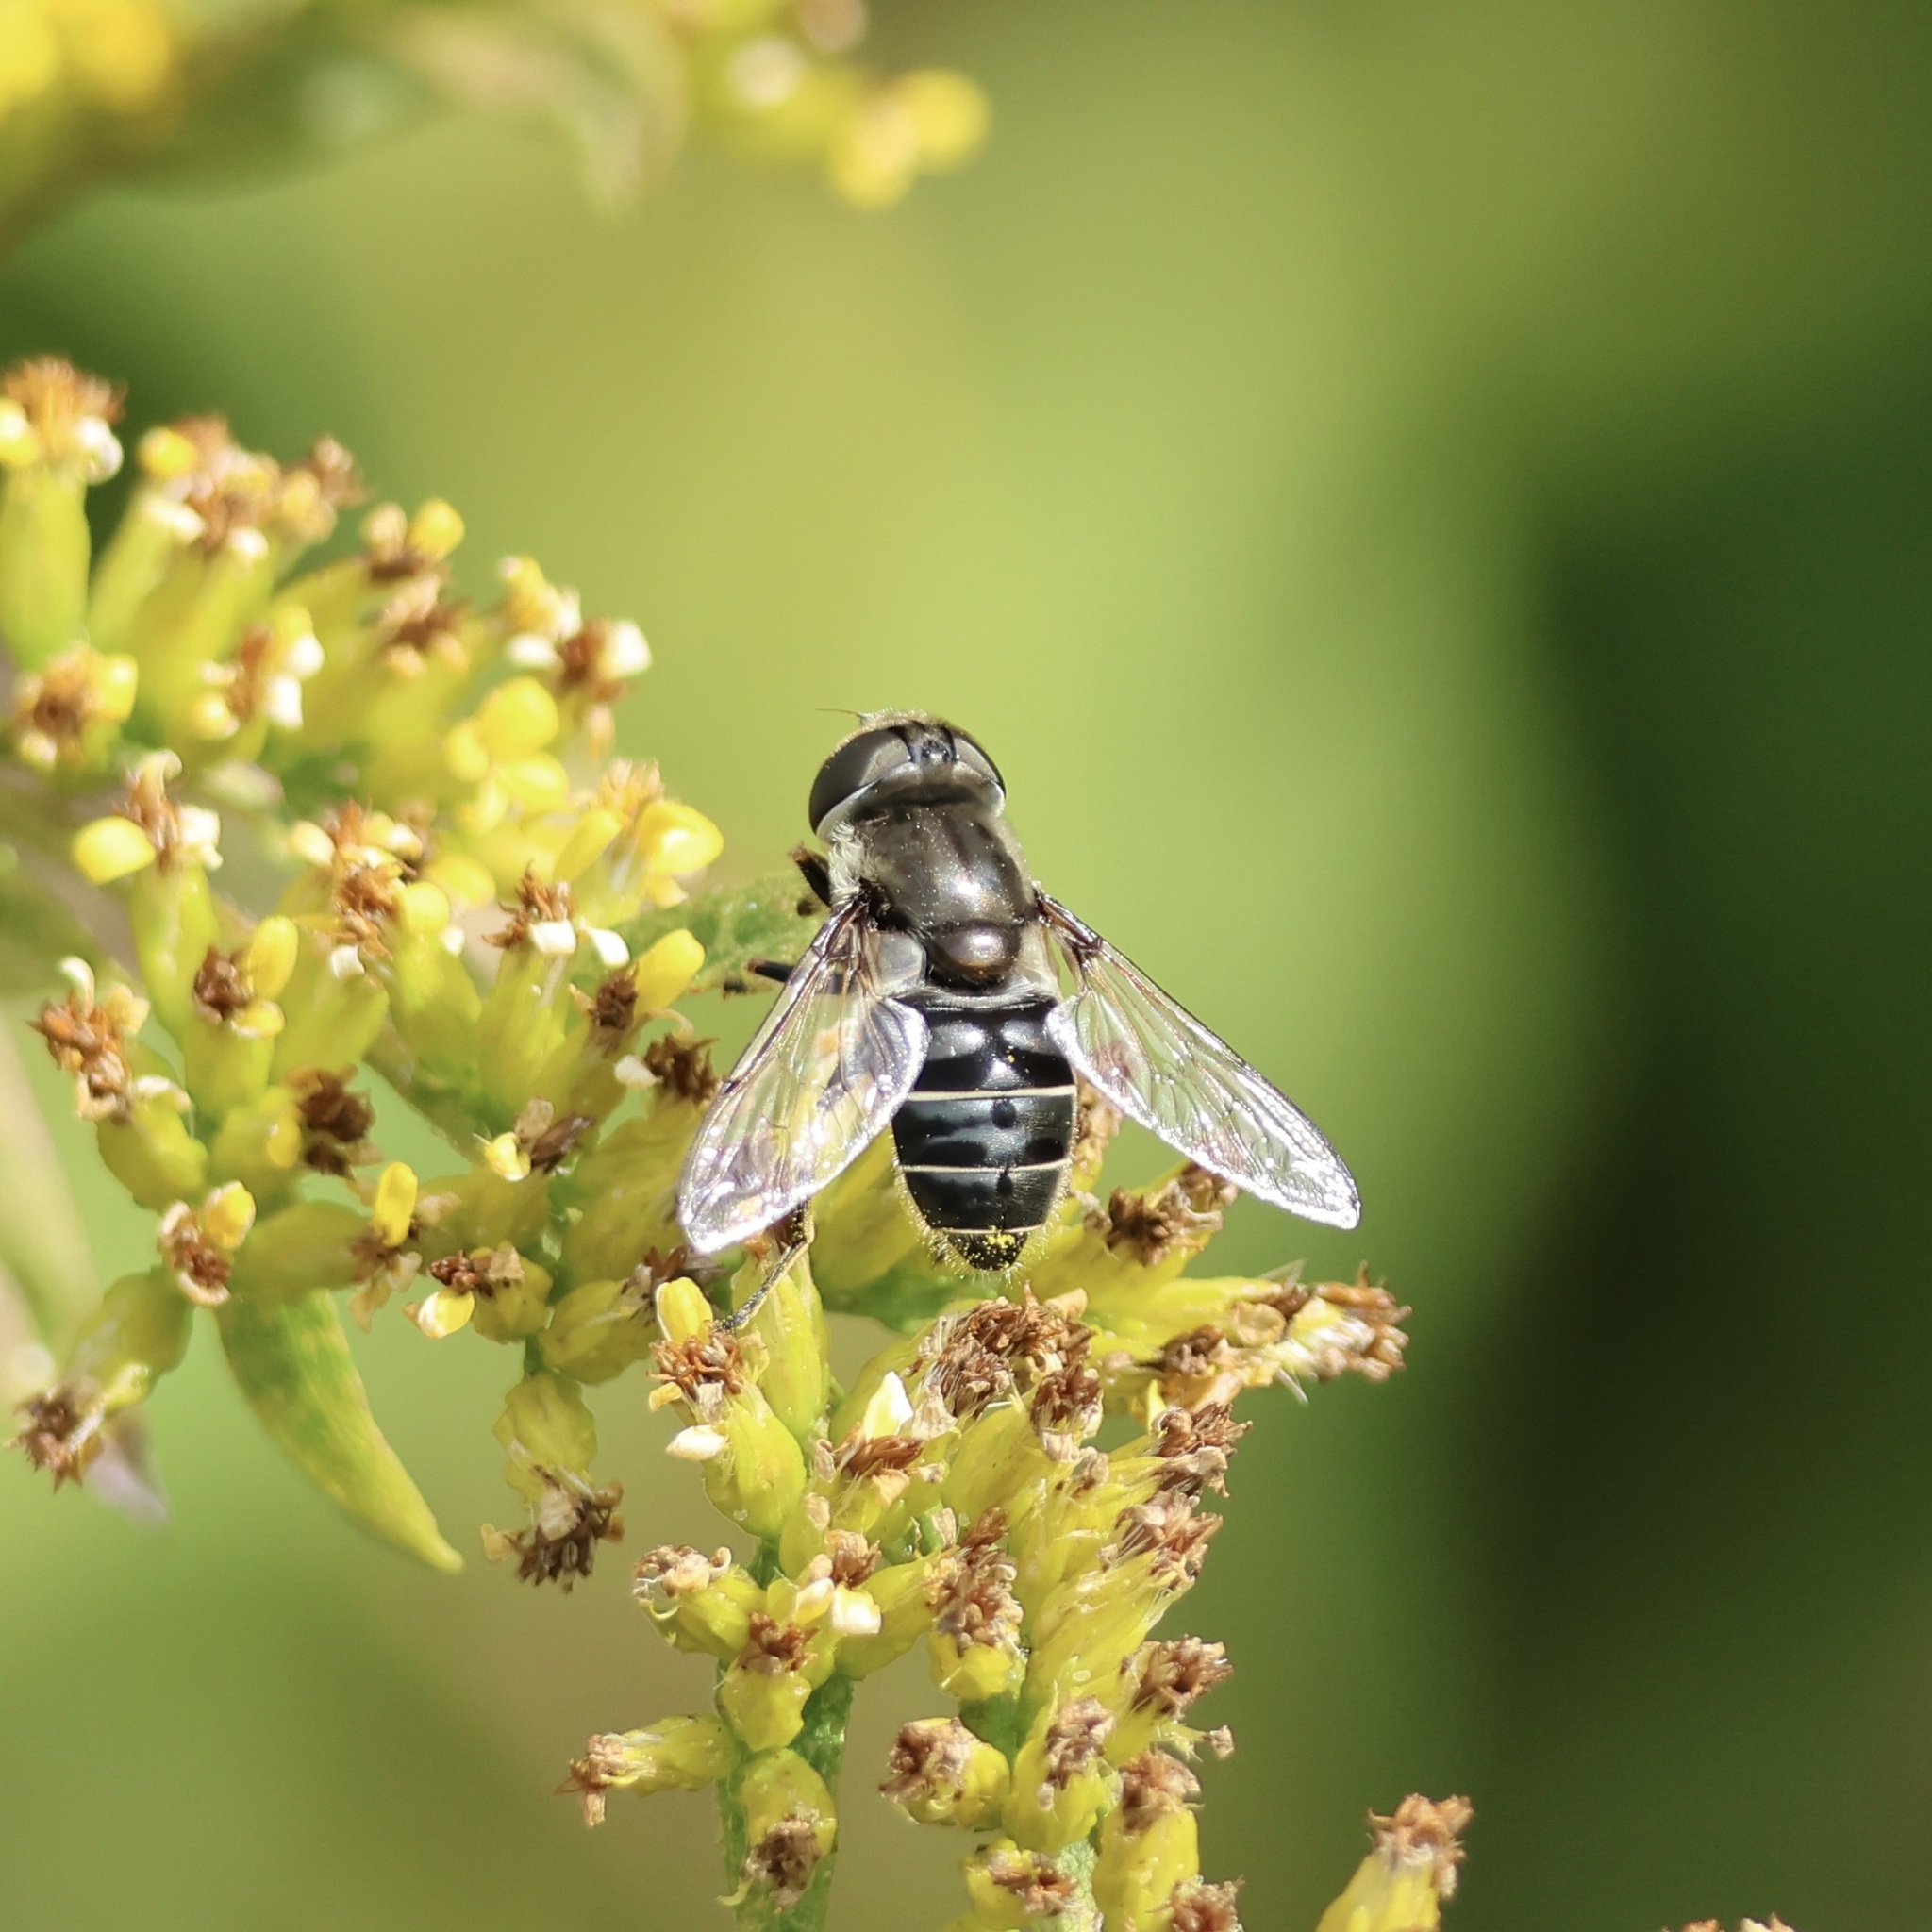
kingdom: Animalia
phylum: Arthropoda
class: Insecta
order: Diptera
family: Syrphidae
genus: Eristalis
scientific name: Eristalis dimidiata
